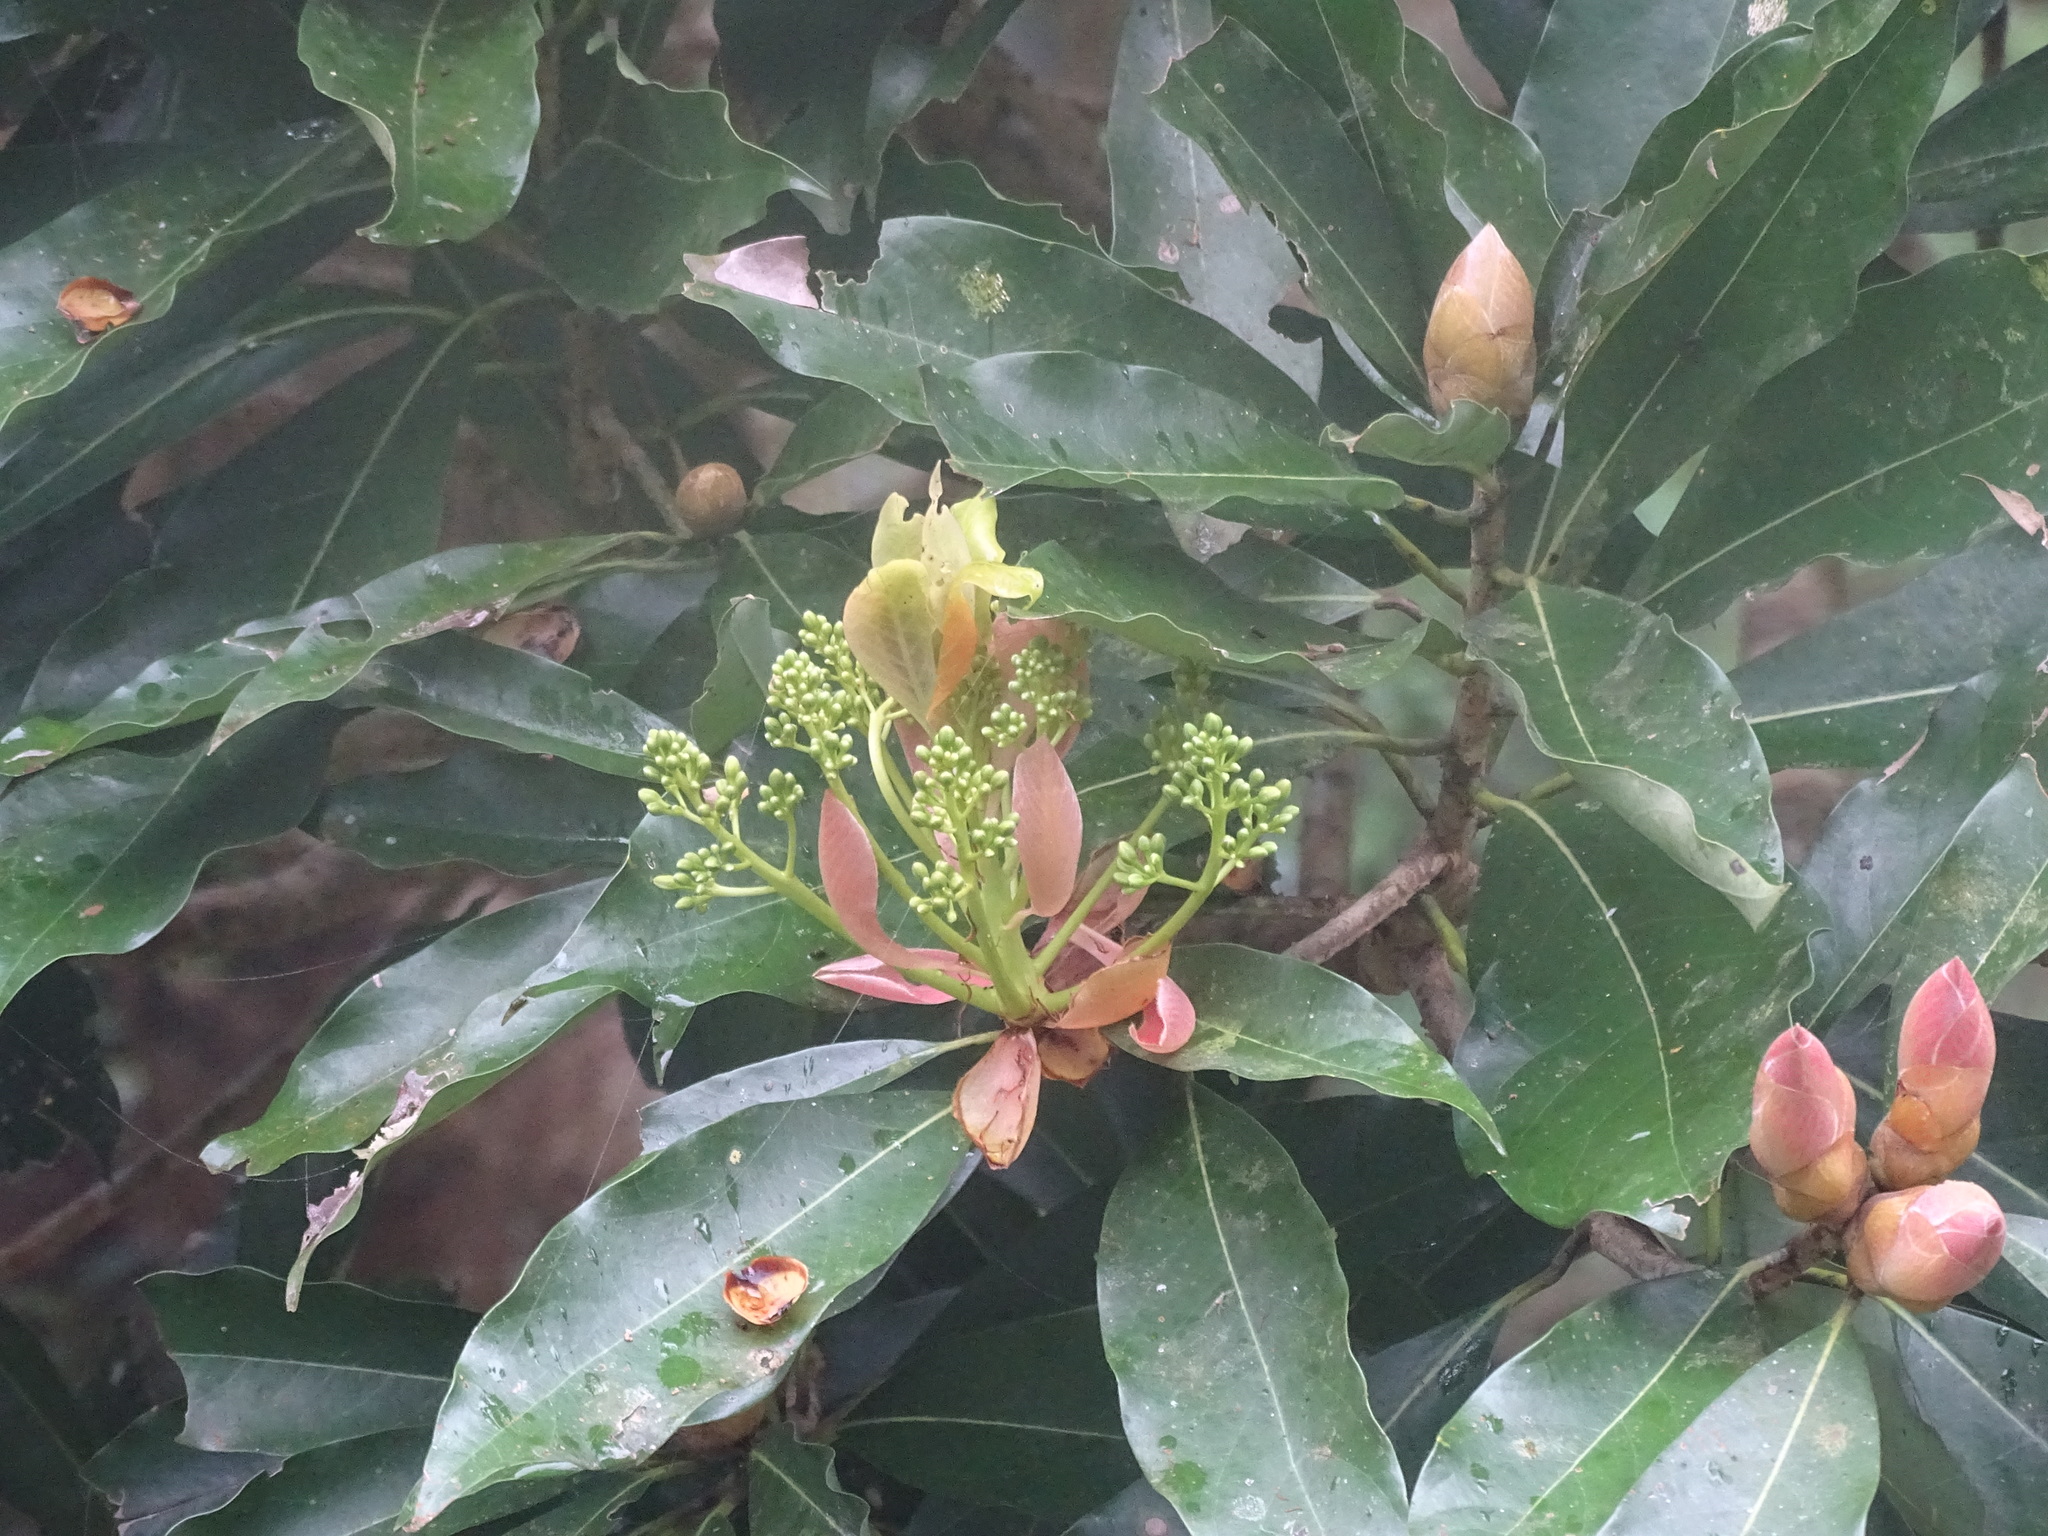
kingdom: Plantae
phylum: Tracheophyta
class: Magnoliopsida
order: Laurales
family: Lauraceae
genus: Machilus
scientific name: Machilus thunbergii
